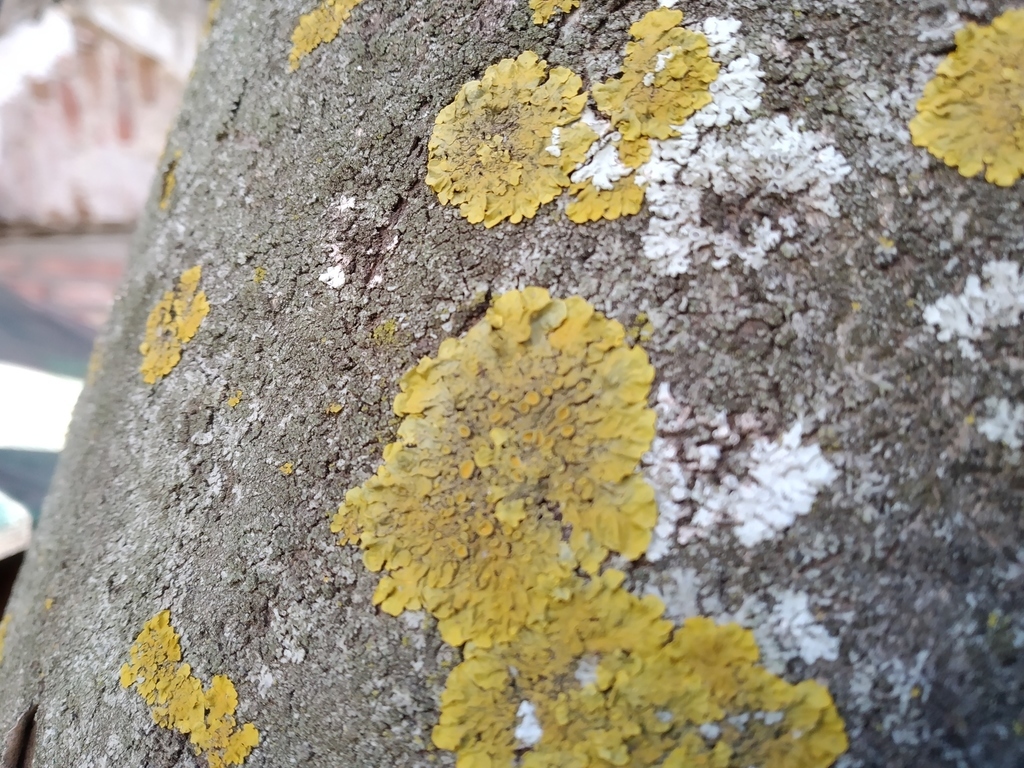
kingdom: Fungi
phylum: Ascomycota
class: Lecanoromycetes
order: Teloschistales
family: Teloschistaceae
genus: Xanthoria
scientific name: Xanthoria parietina
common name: Common orange lichen
